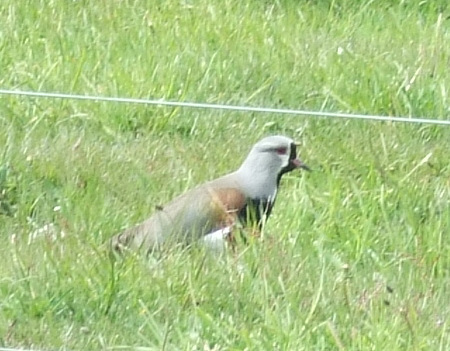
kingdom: Animalia
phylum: Chordata
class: Aves
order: Charadriiformes
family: Charadriidae
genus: Vanellus
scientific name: Vanellus chilensis
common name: Southern lapwing
